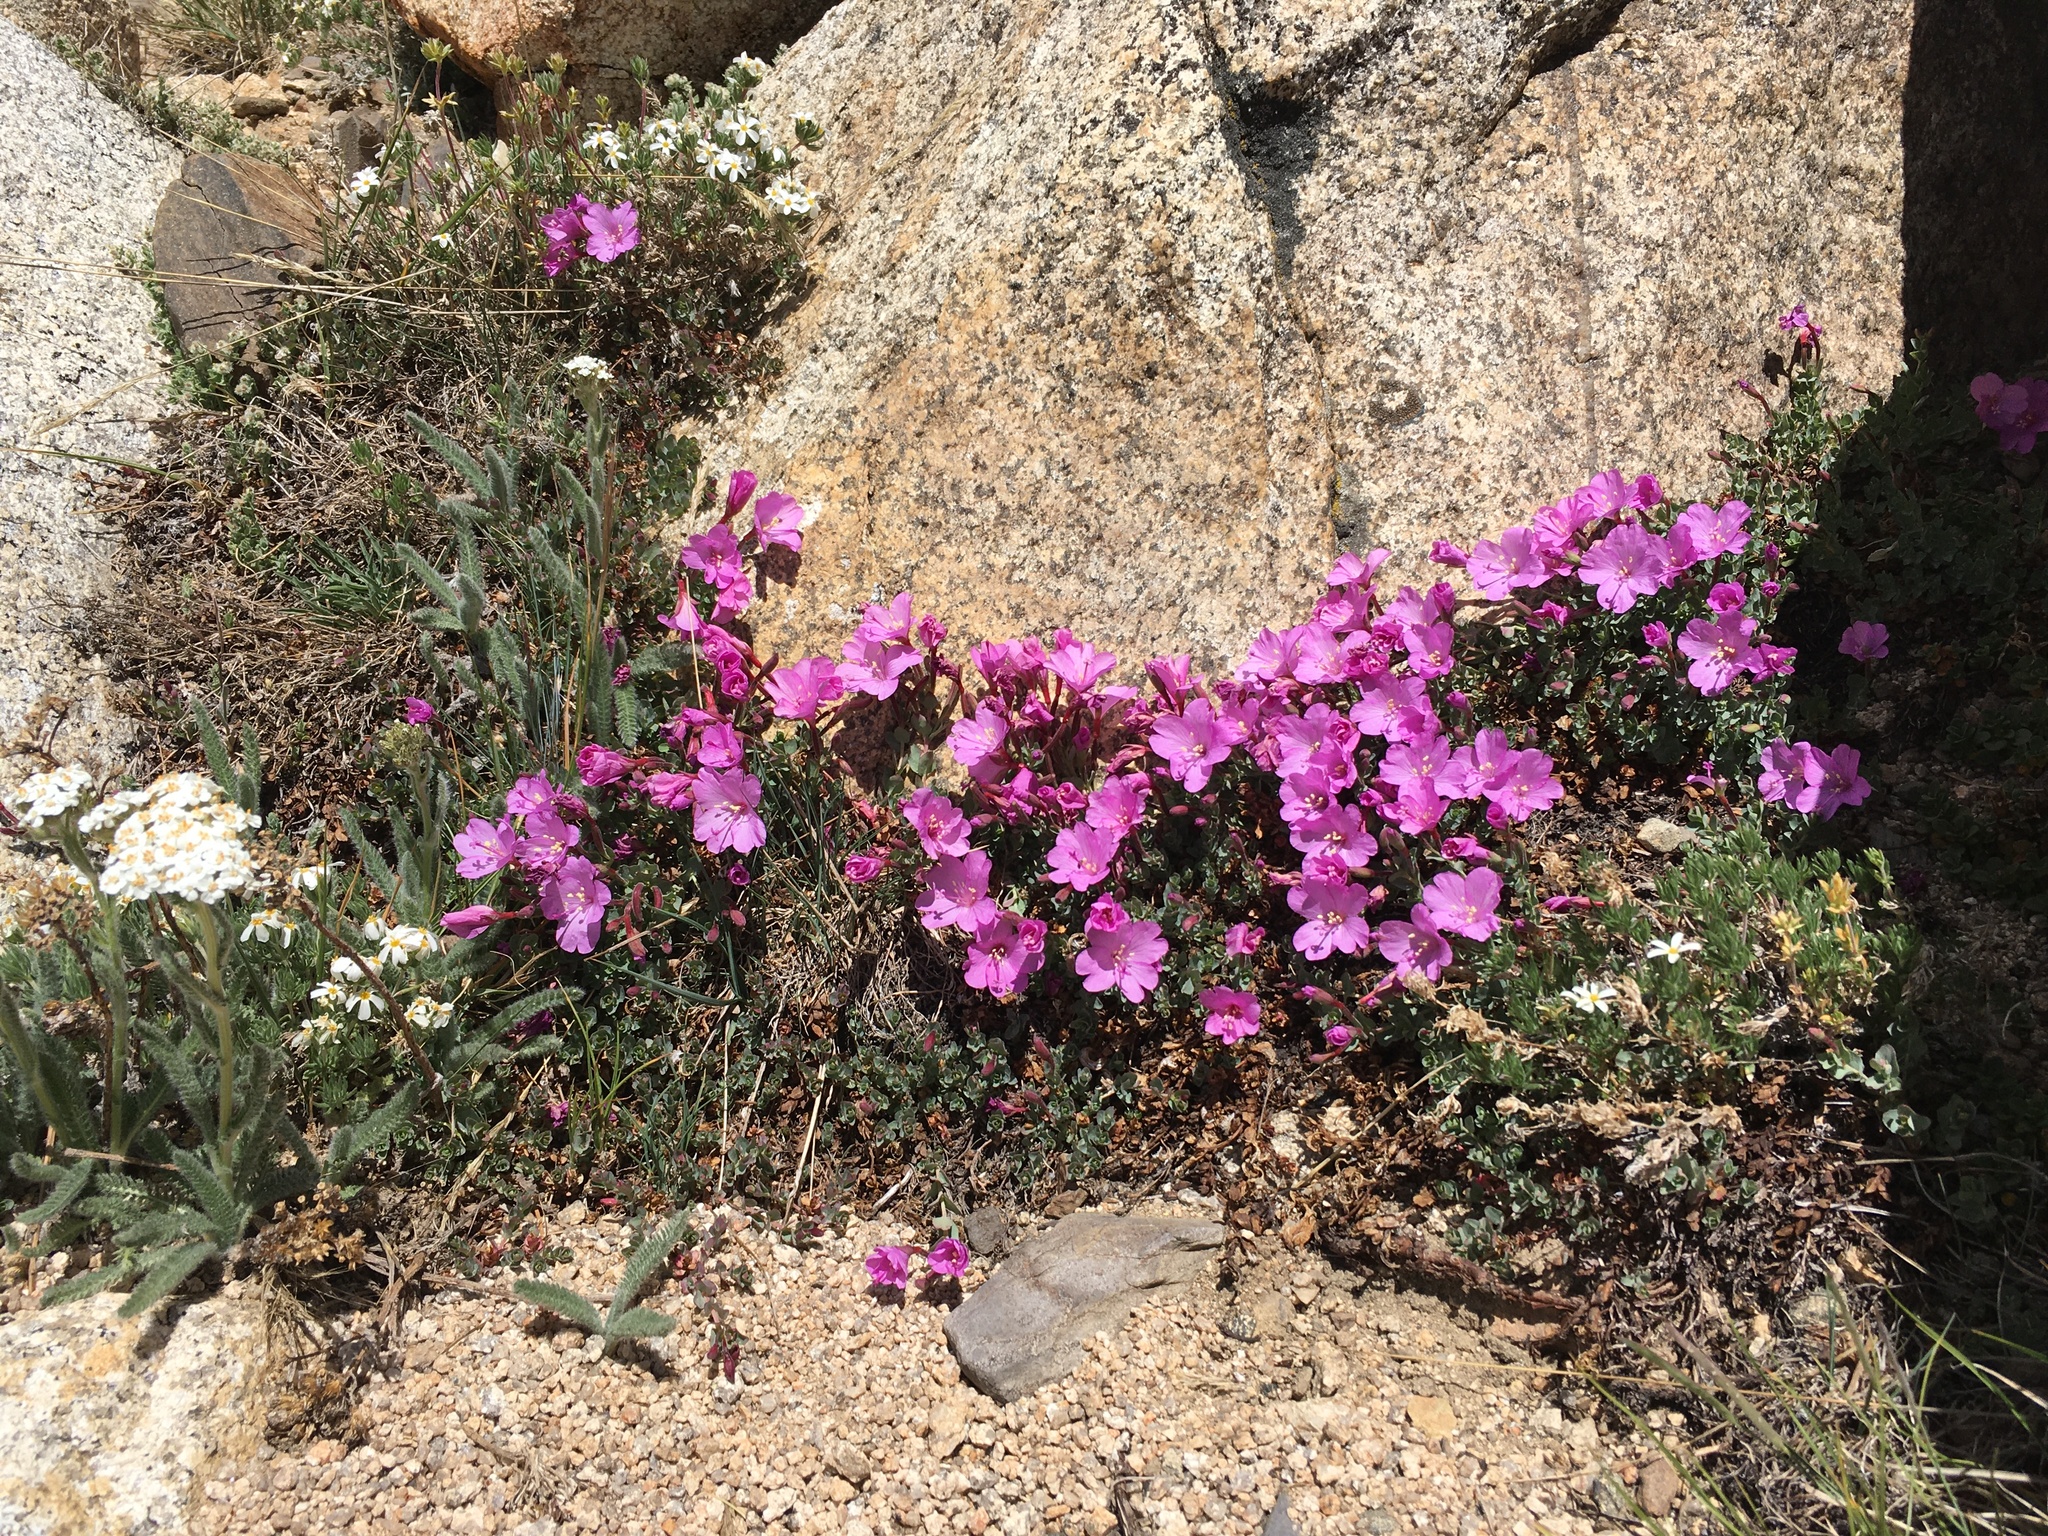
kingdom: Plantae
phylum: Tracheophyta
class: Magnoliopsida
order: Myrtales
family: Onagraceae
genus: Epilobium
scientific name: Epilobium obcordatum
